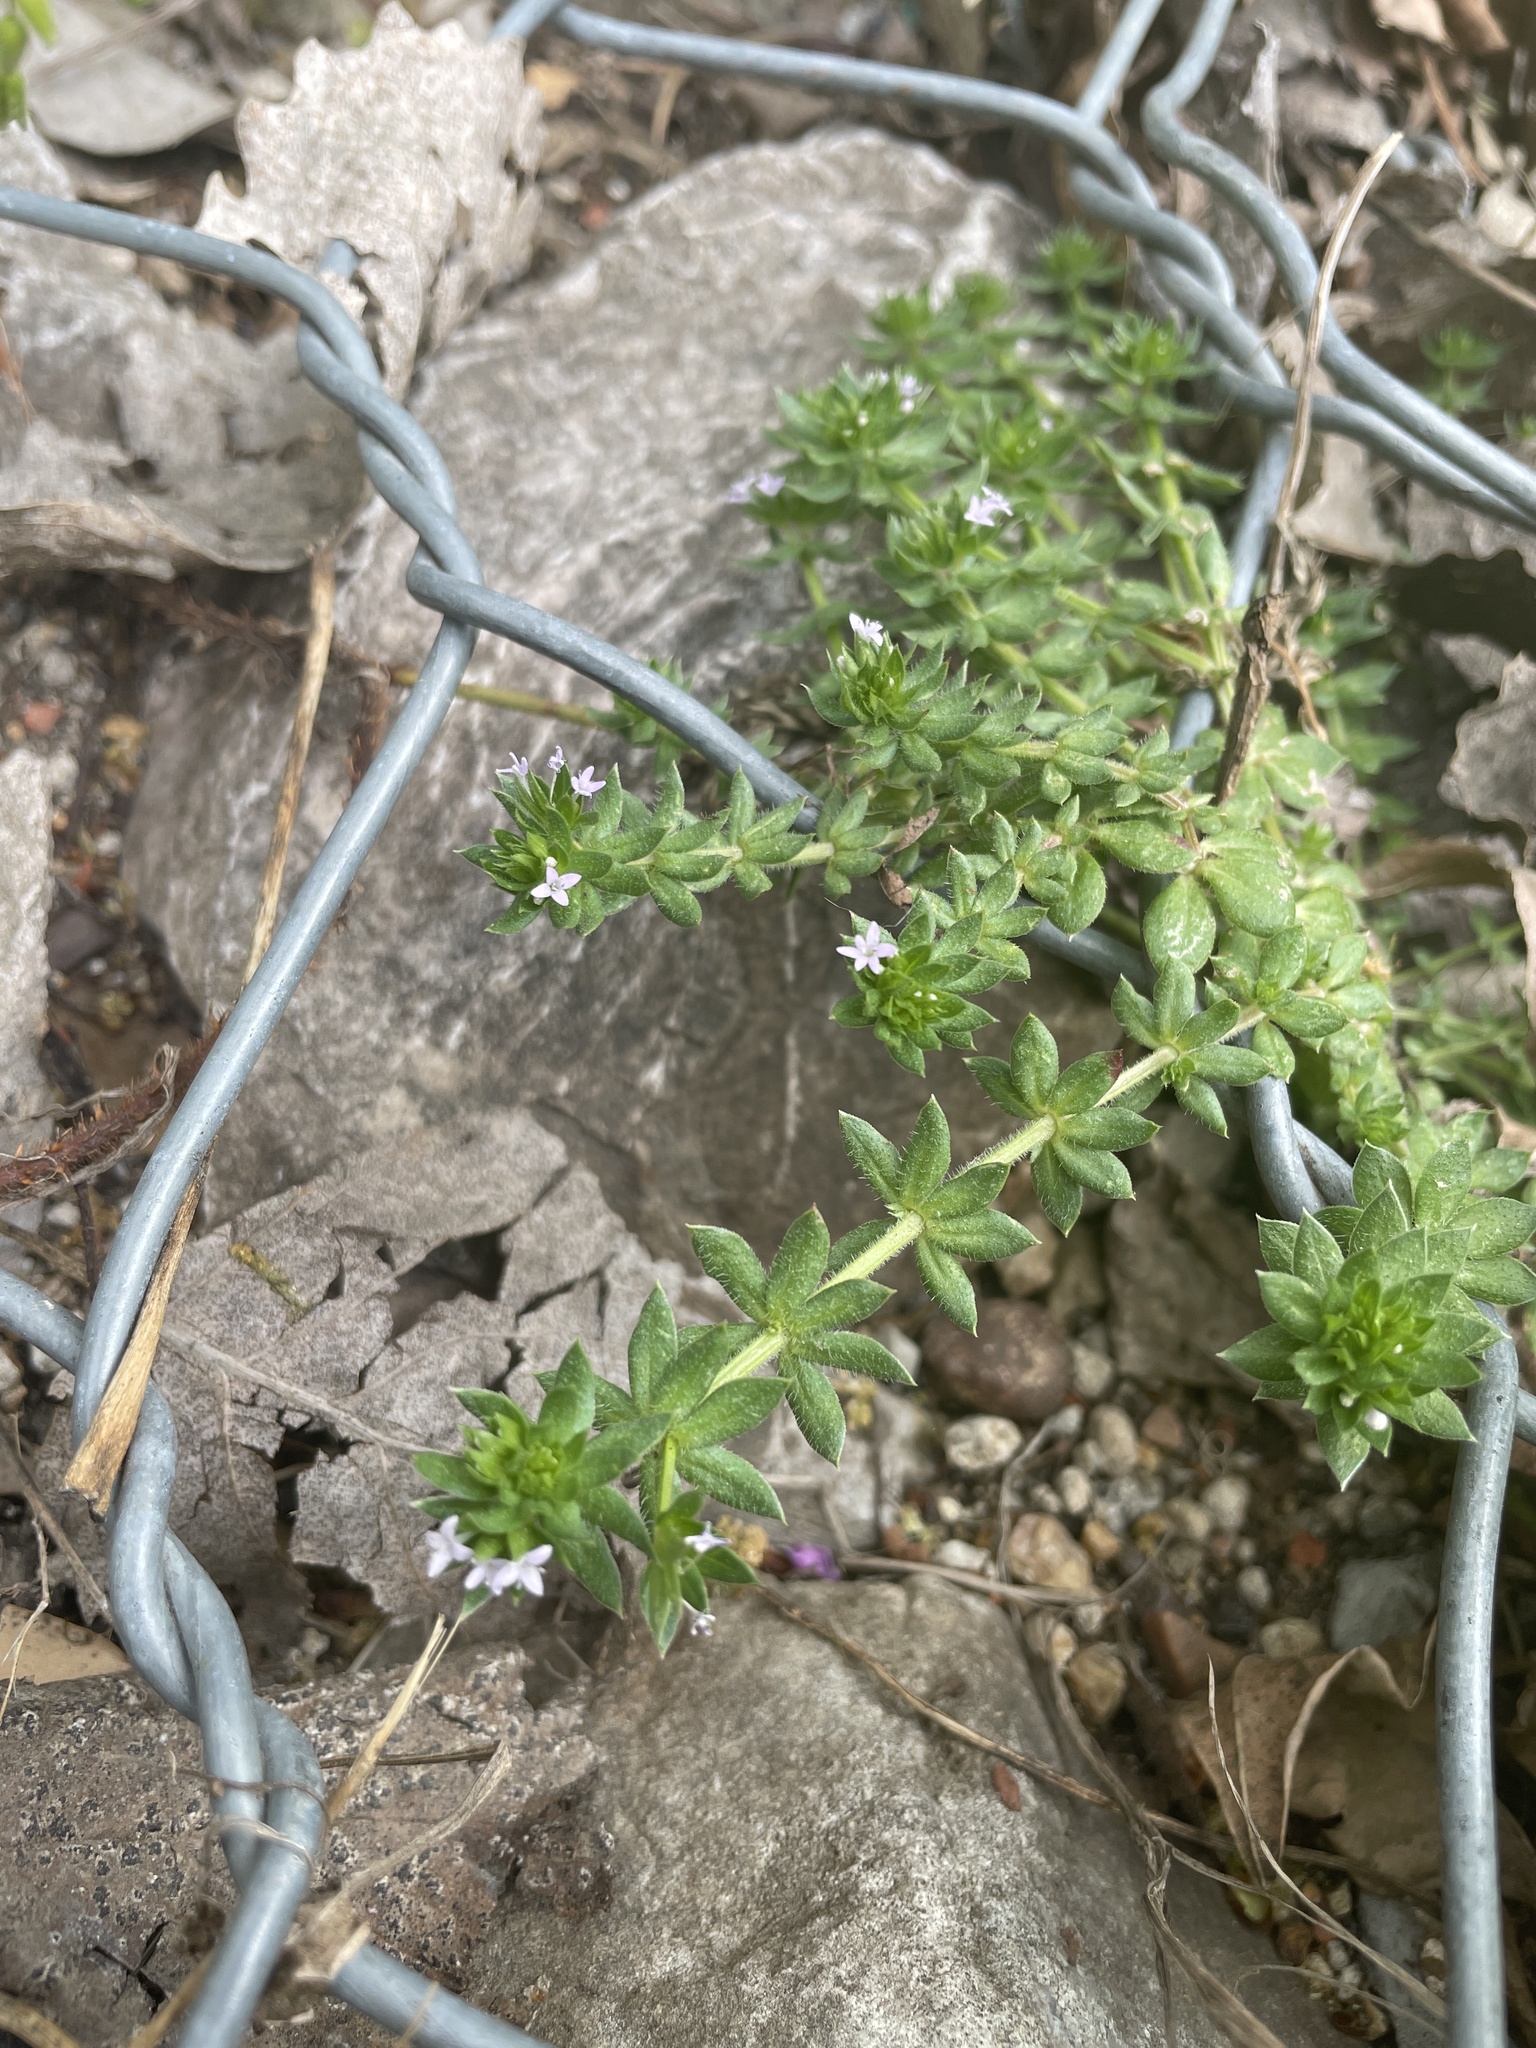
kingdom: Plantae
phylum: Tracheophyta
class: Magnoliopsida
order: Gentianales
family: Rubiaceae
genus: Sherardia
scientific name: Sherardia arvensis
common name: Field madder
